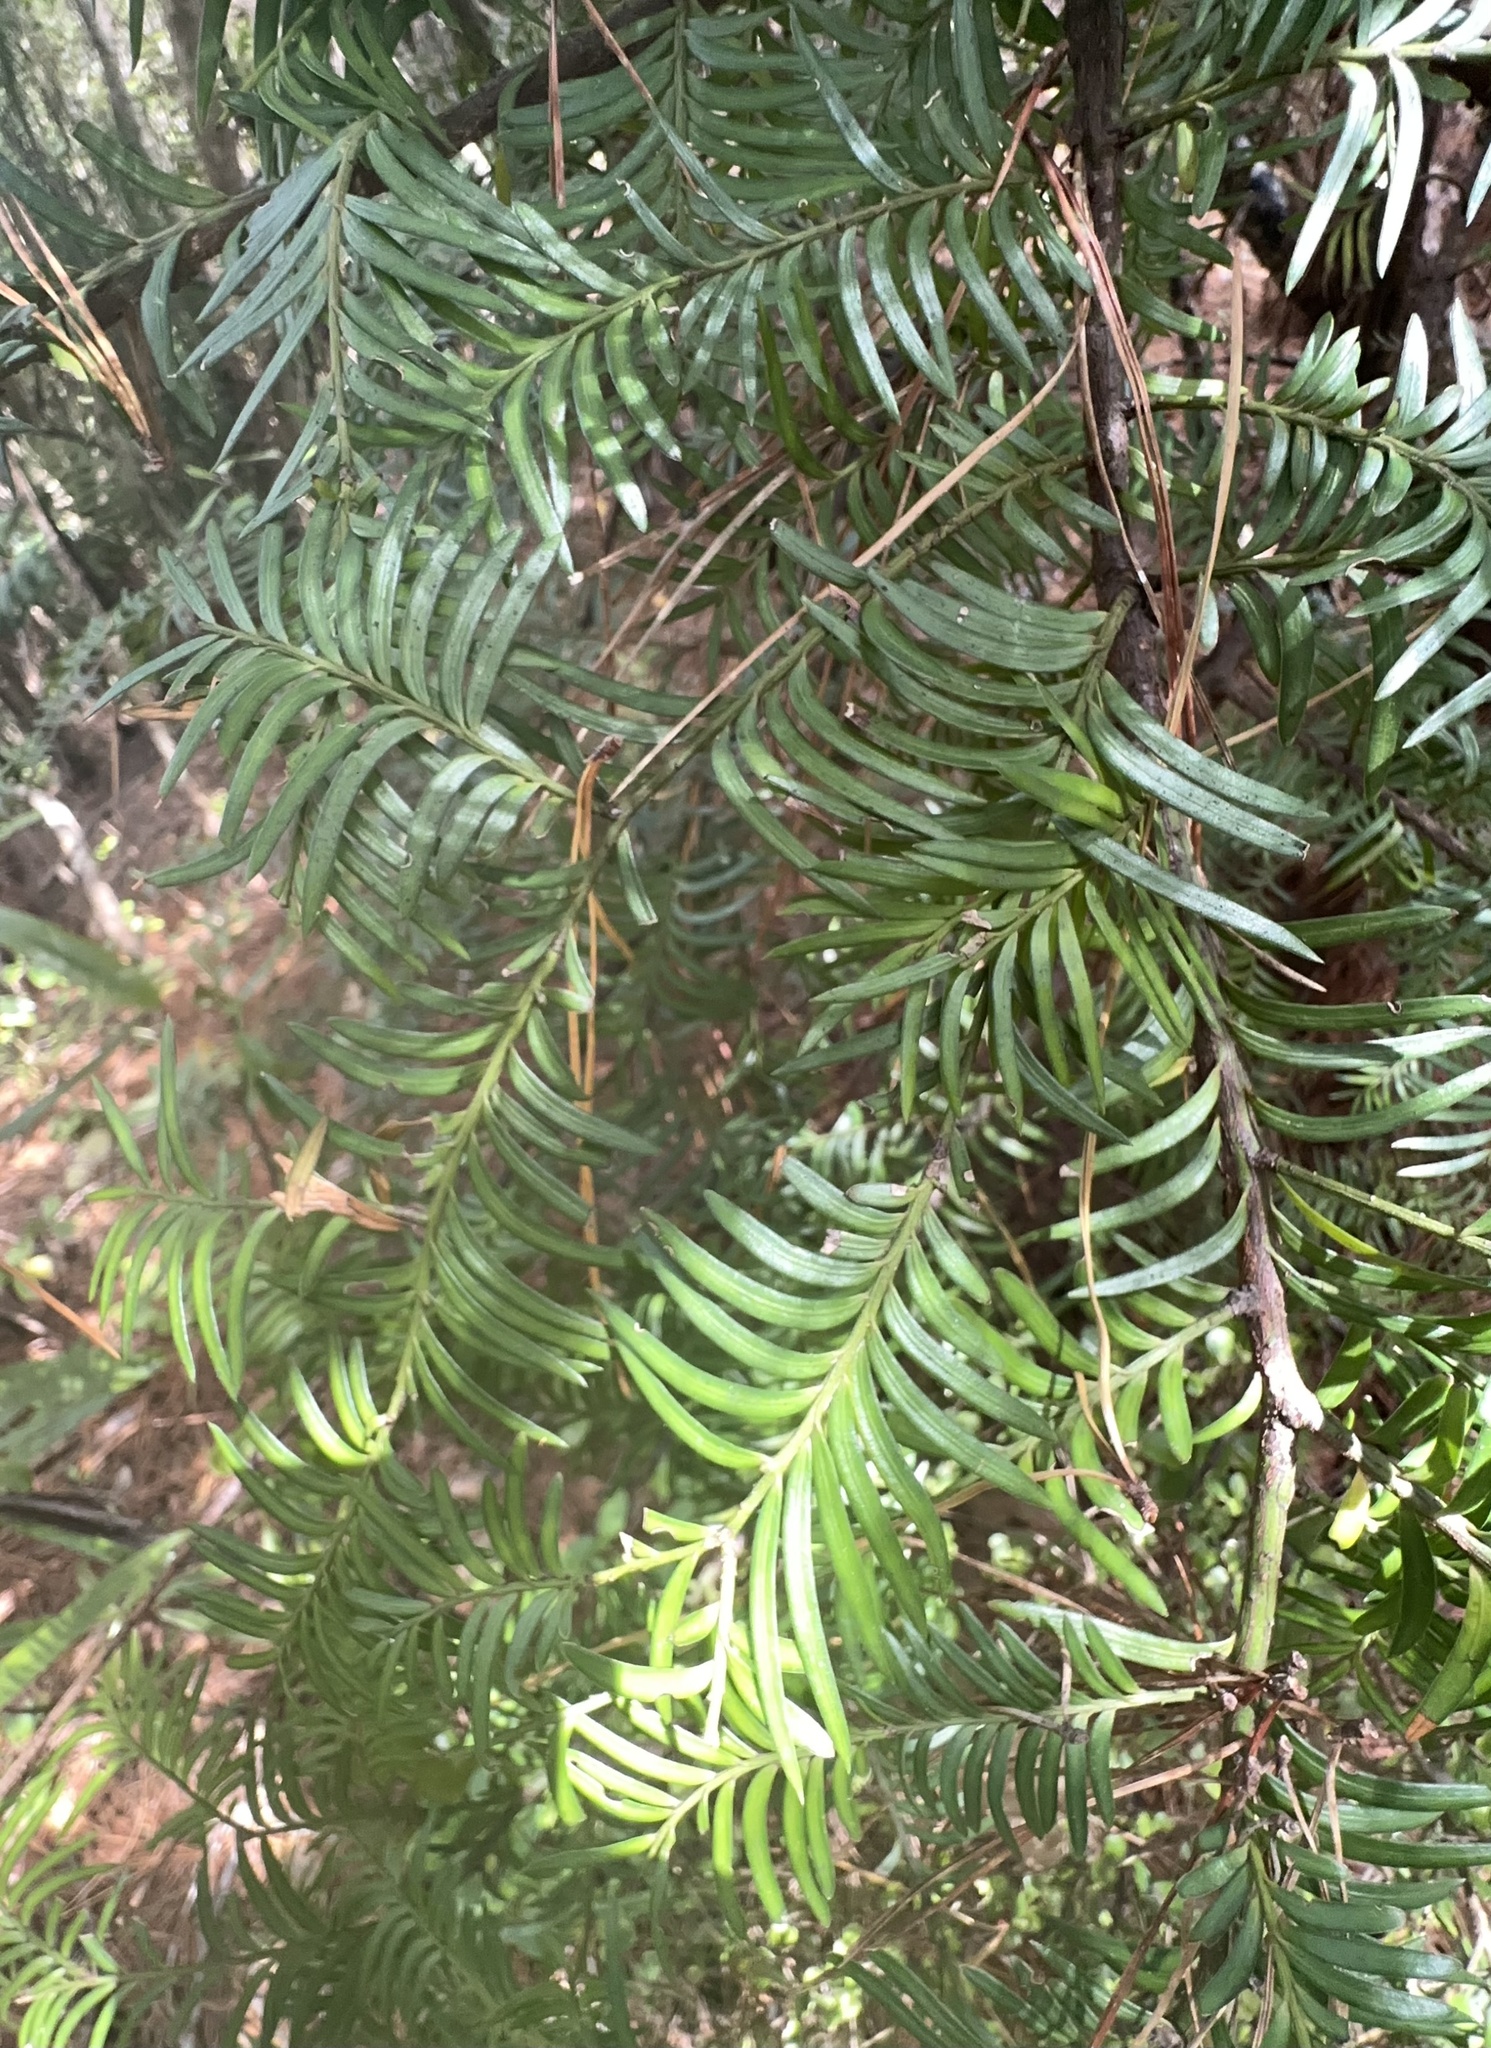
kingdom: Plantae
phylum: Tracheophyta
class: Pinopsida
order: Pinales
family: Podocarpaceae
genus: Prumnopitys
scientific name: Prumnopitys ferruginea
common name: Brown pine
